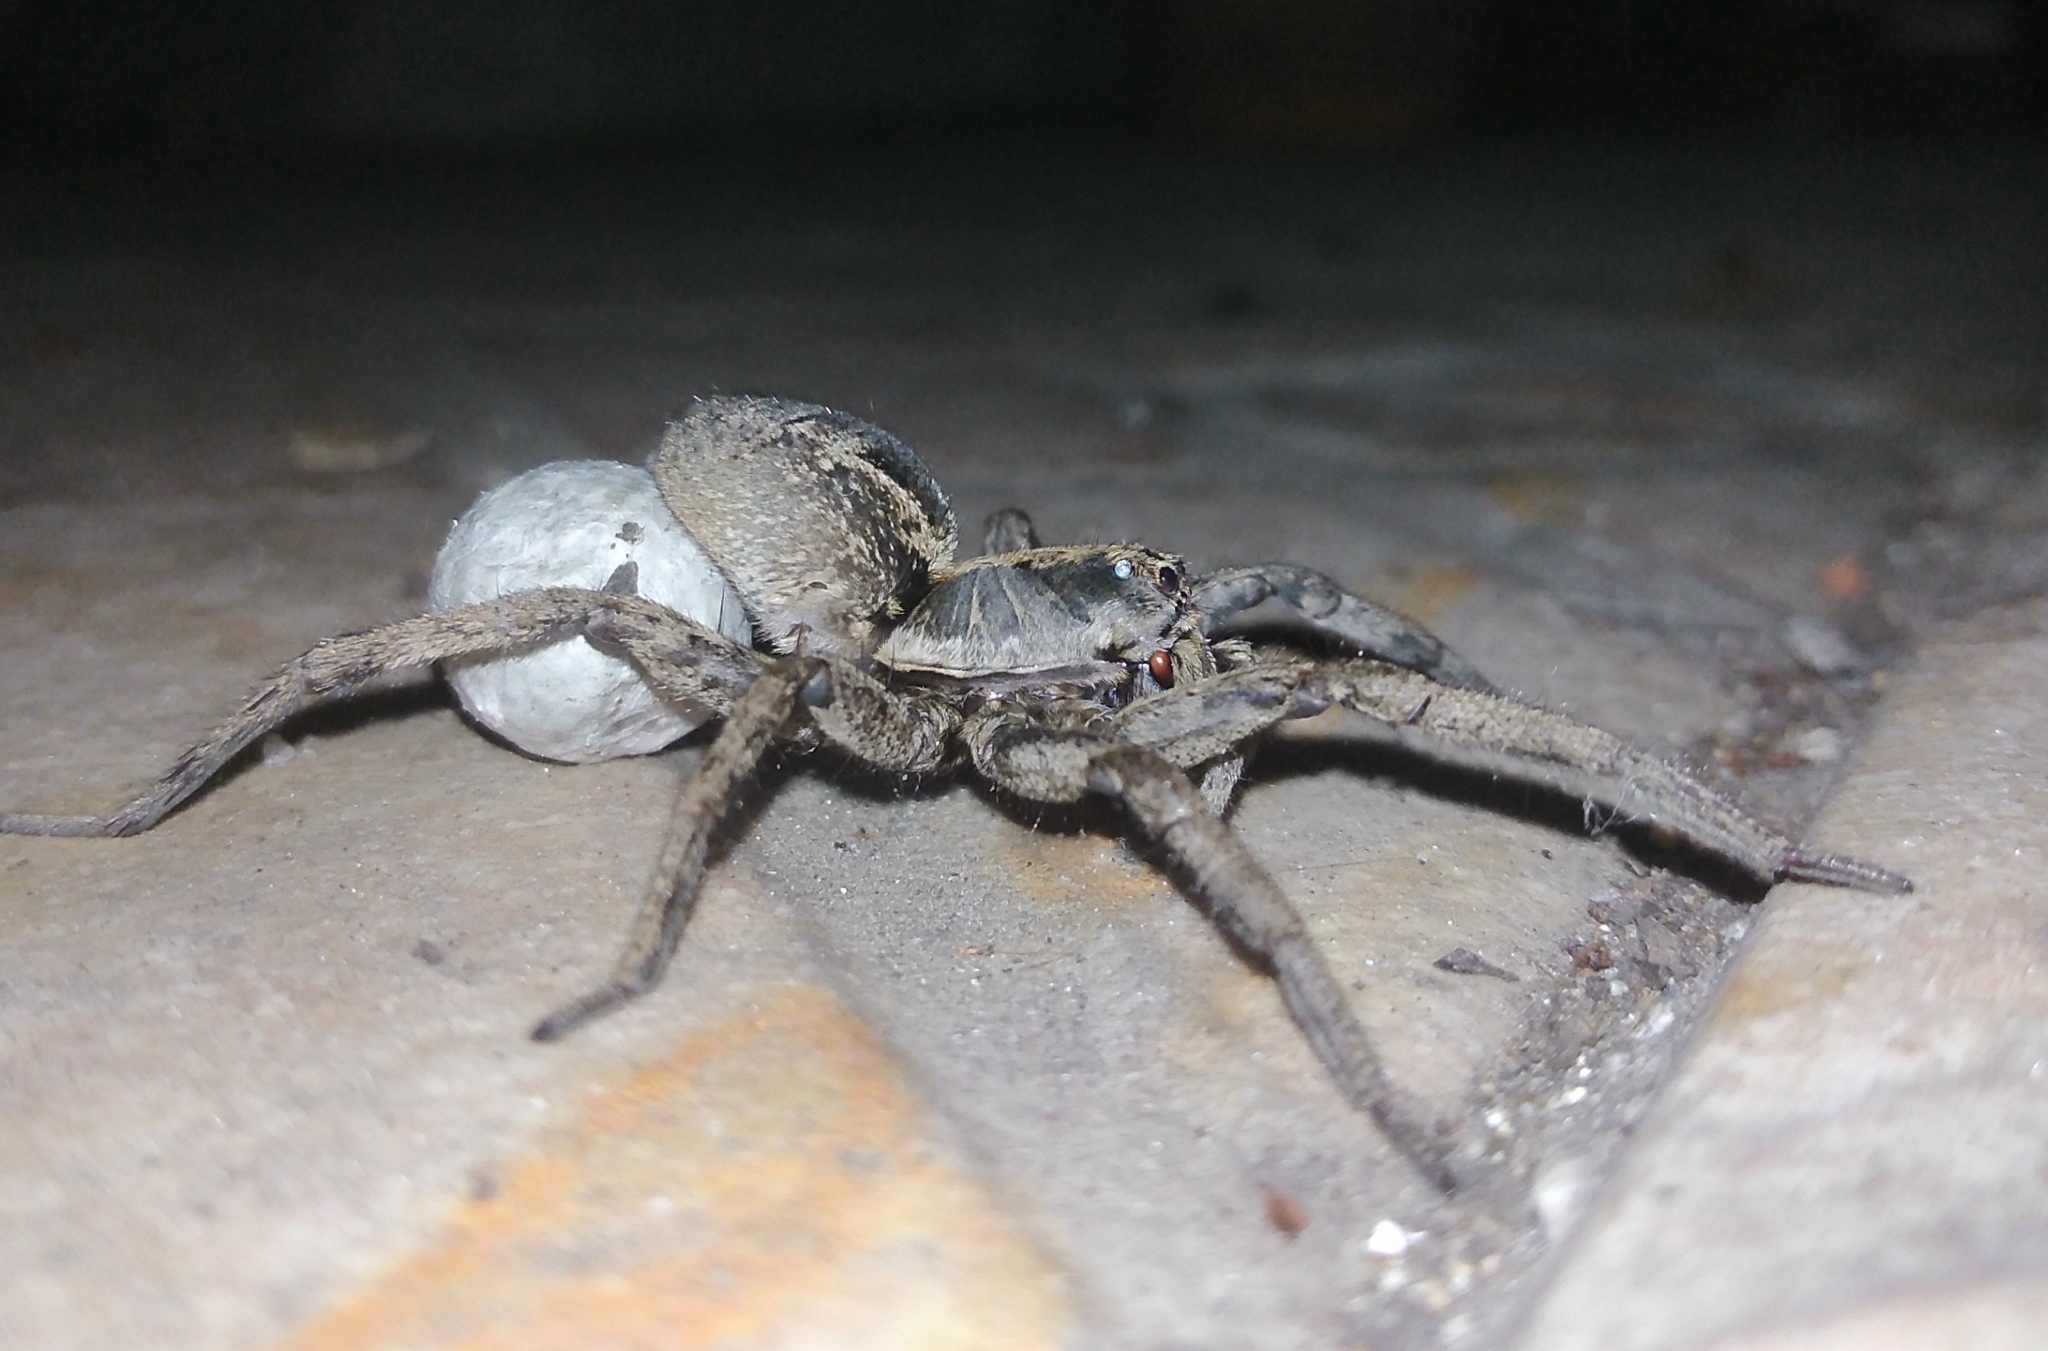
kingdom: Animalia
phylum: Arthropoda
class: Arachnida
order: Araneae
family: Lycosidae
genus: Schizocosa
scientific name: Schizocosa malitiosa
